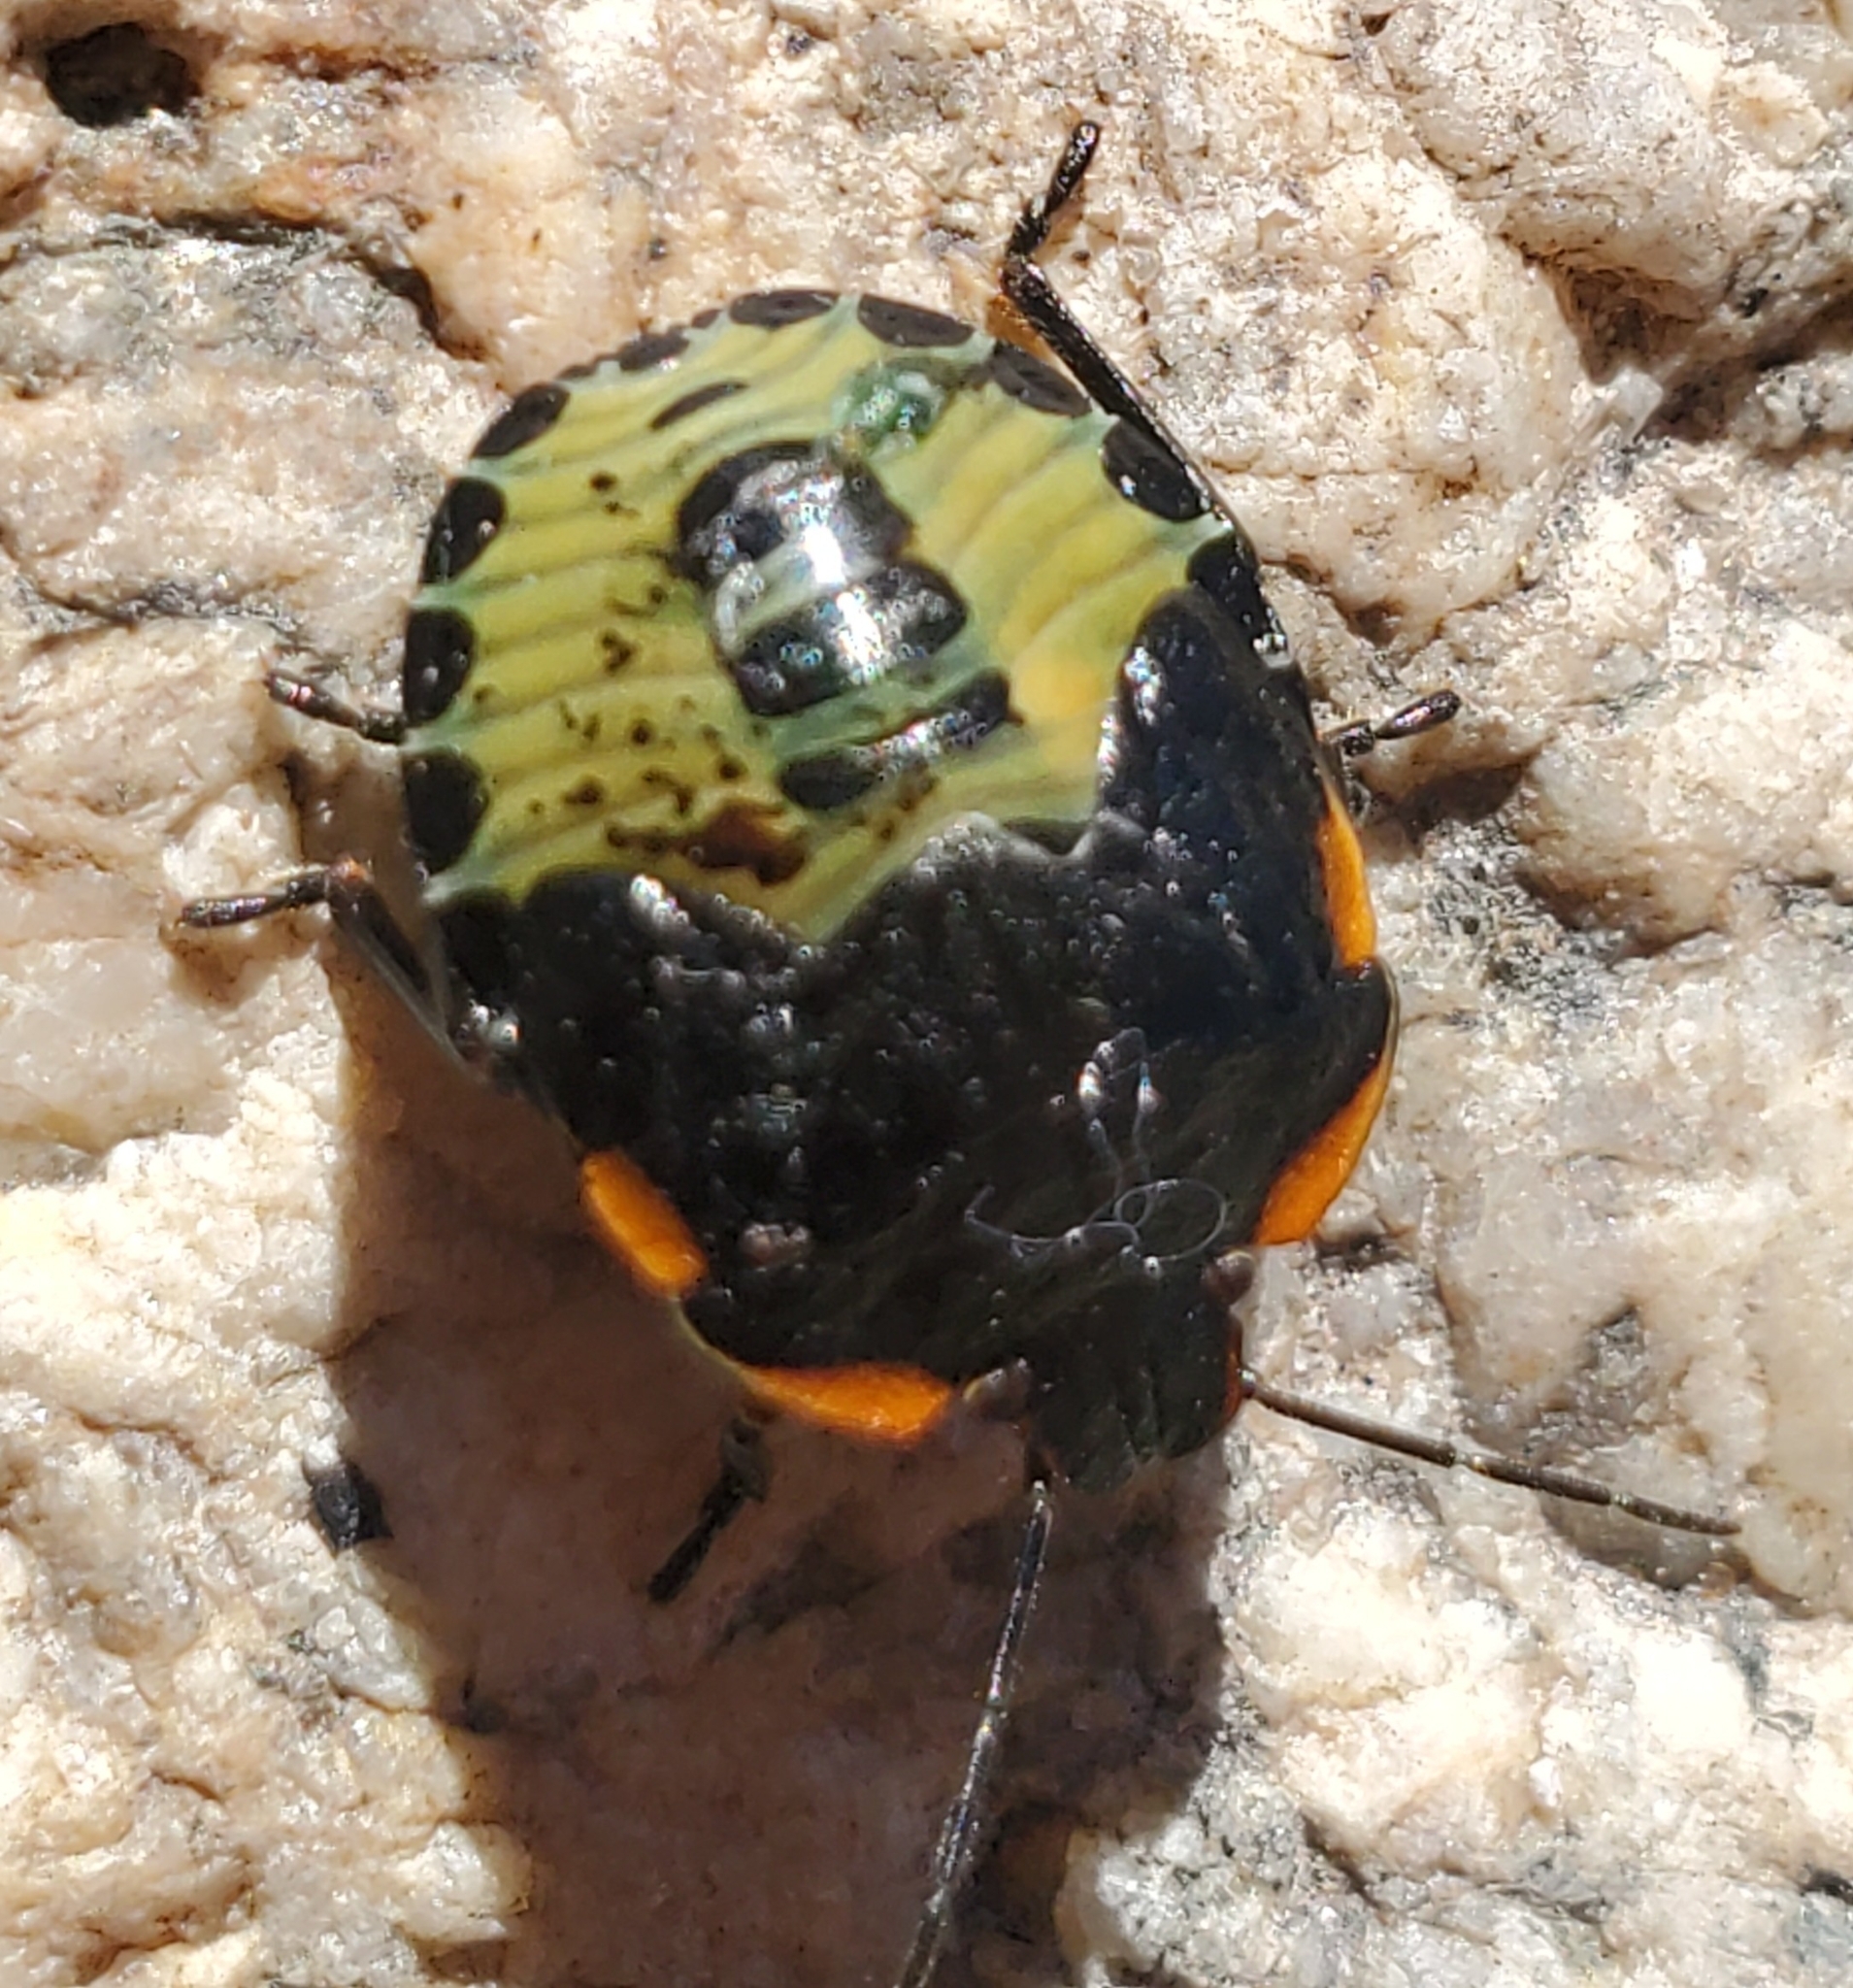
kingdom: Animalia
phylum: Arthropoda
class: Insecta
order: Hemiptera
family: Pentatomidae
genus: Chinavia
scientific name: Chinavia hilaris
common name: Green stink bug
